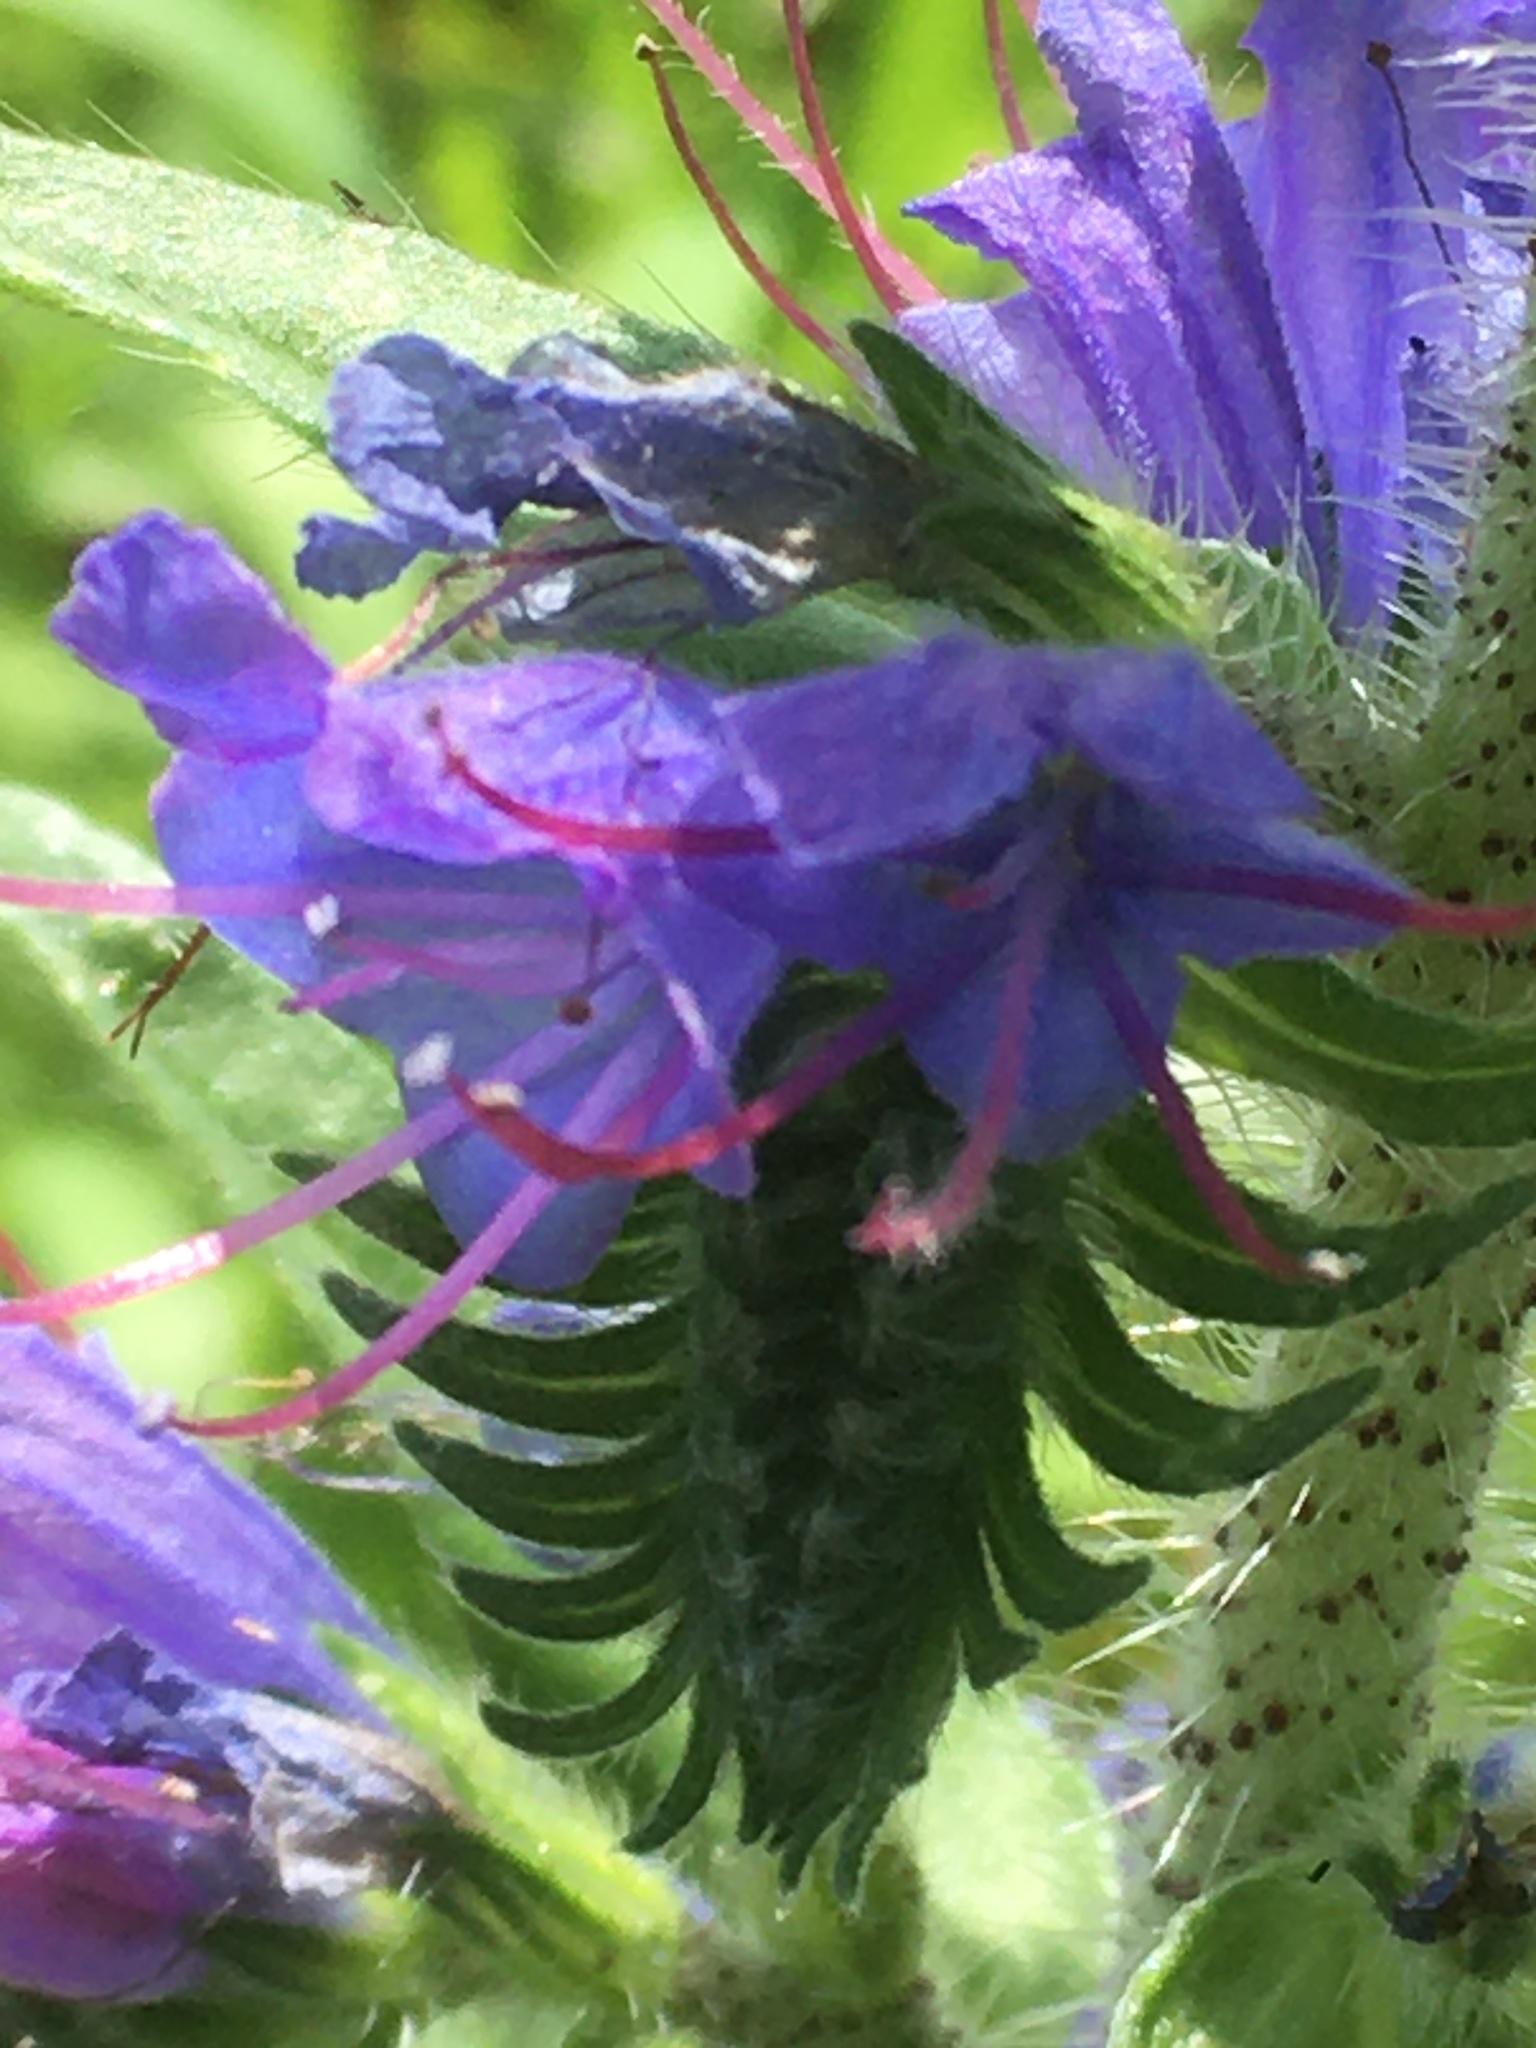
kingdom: Plantae
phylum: Tracheophyta
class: Magnoliopsida
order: Boraginales
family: Boraginaceae
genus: Echium
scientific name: Echium vulgare
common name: Common viper's bugloss
